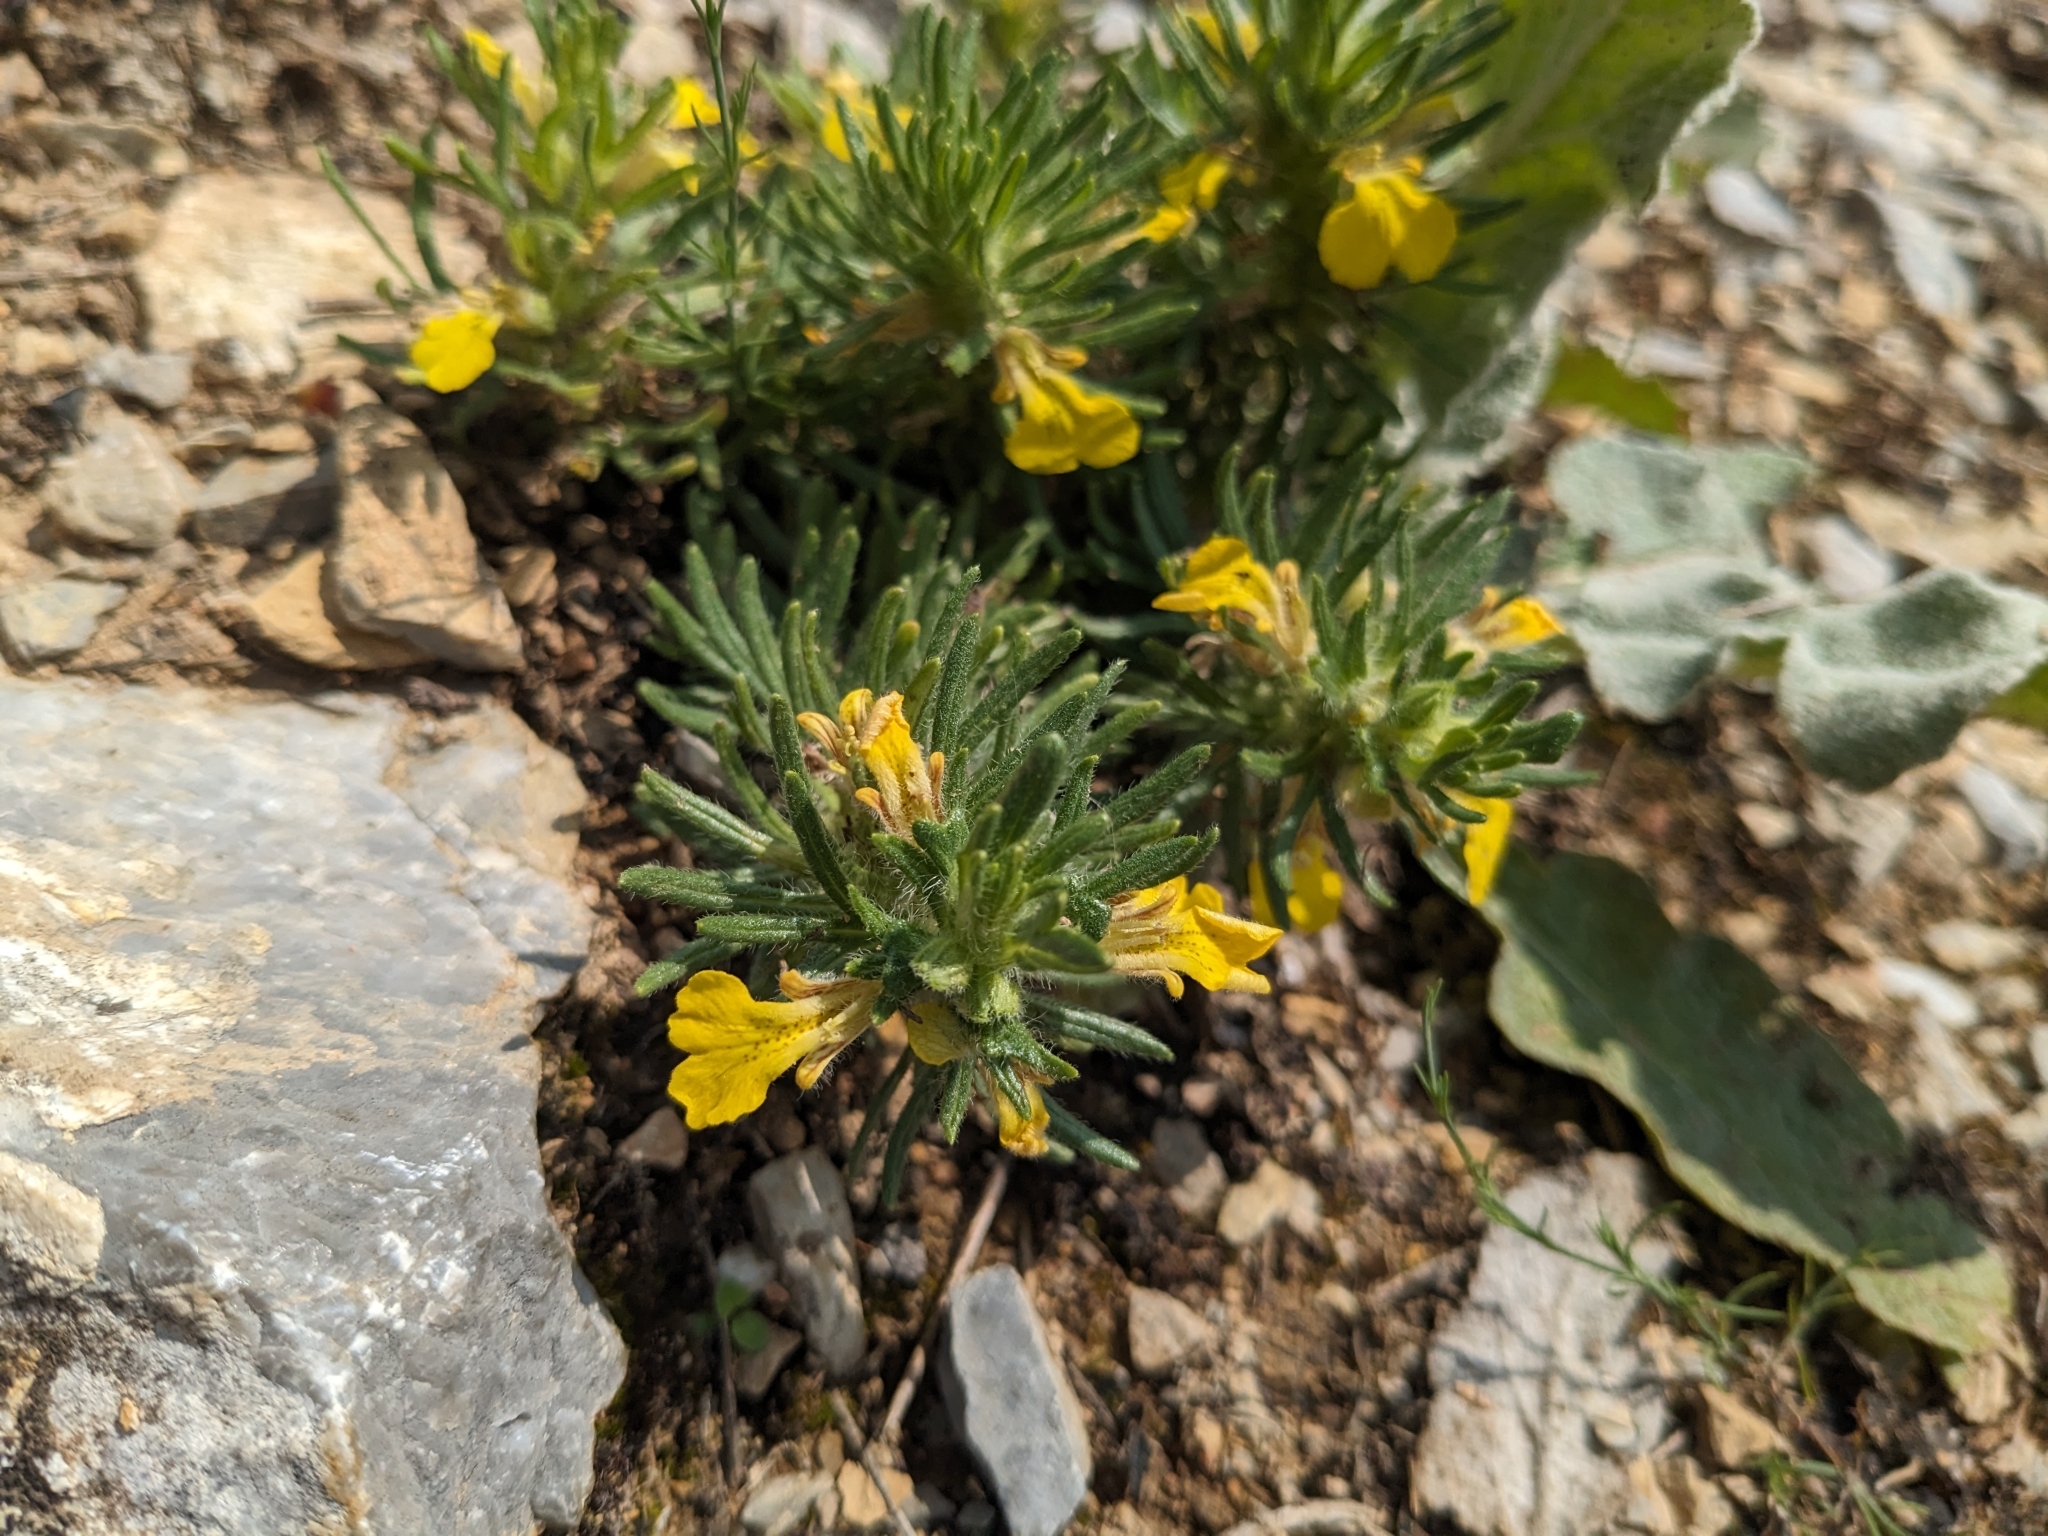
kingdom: Plantae
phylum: Tracheophyta
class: Magnoliopsida
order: Lamiales
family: Lamiaceae
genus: Ajuga
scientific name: Ajuga chamaepitys
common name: Ground-pine
